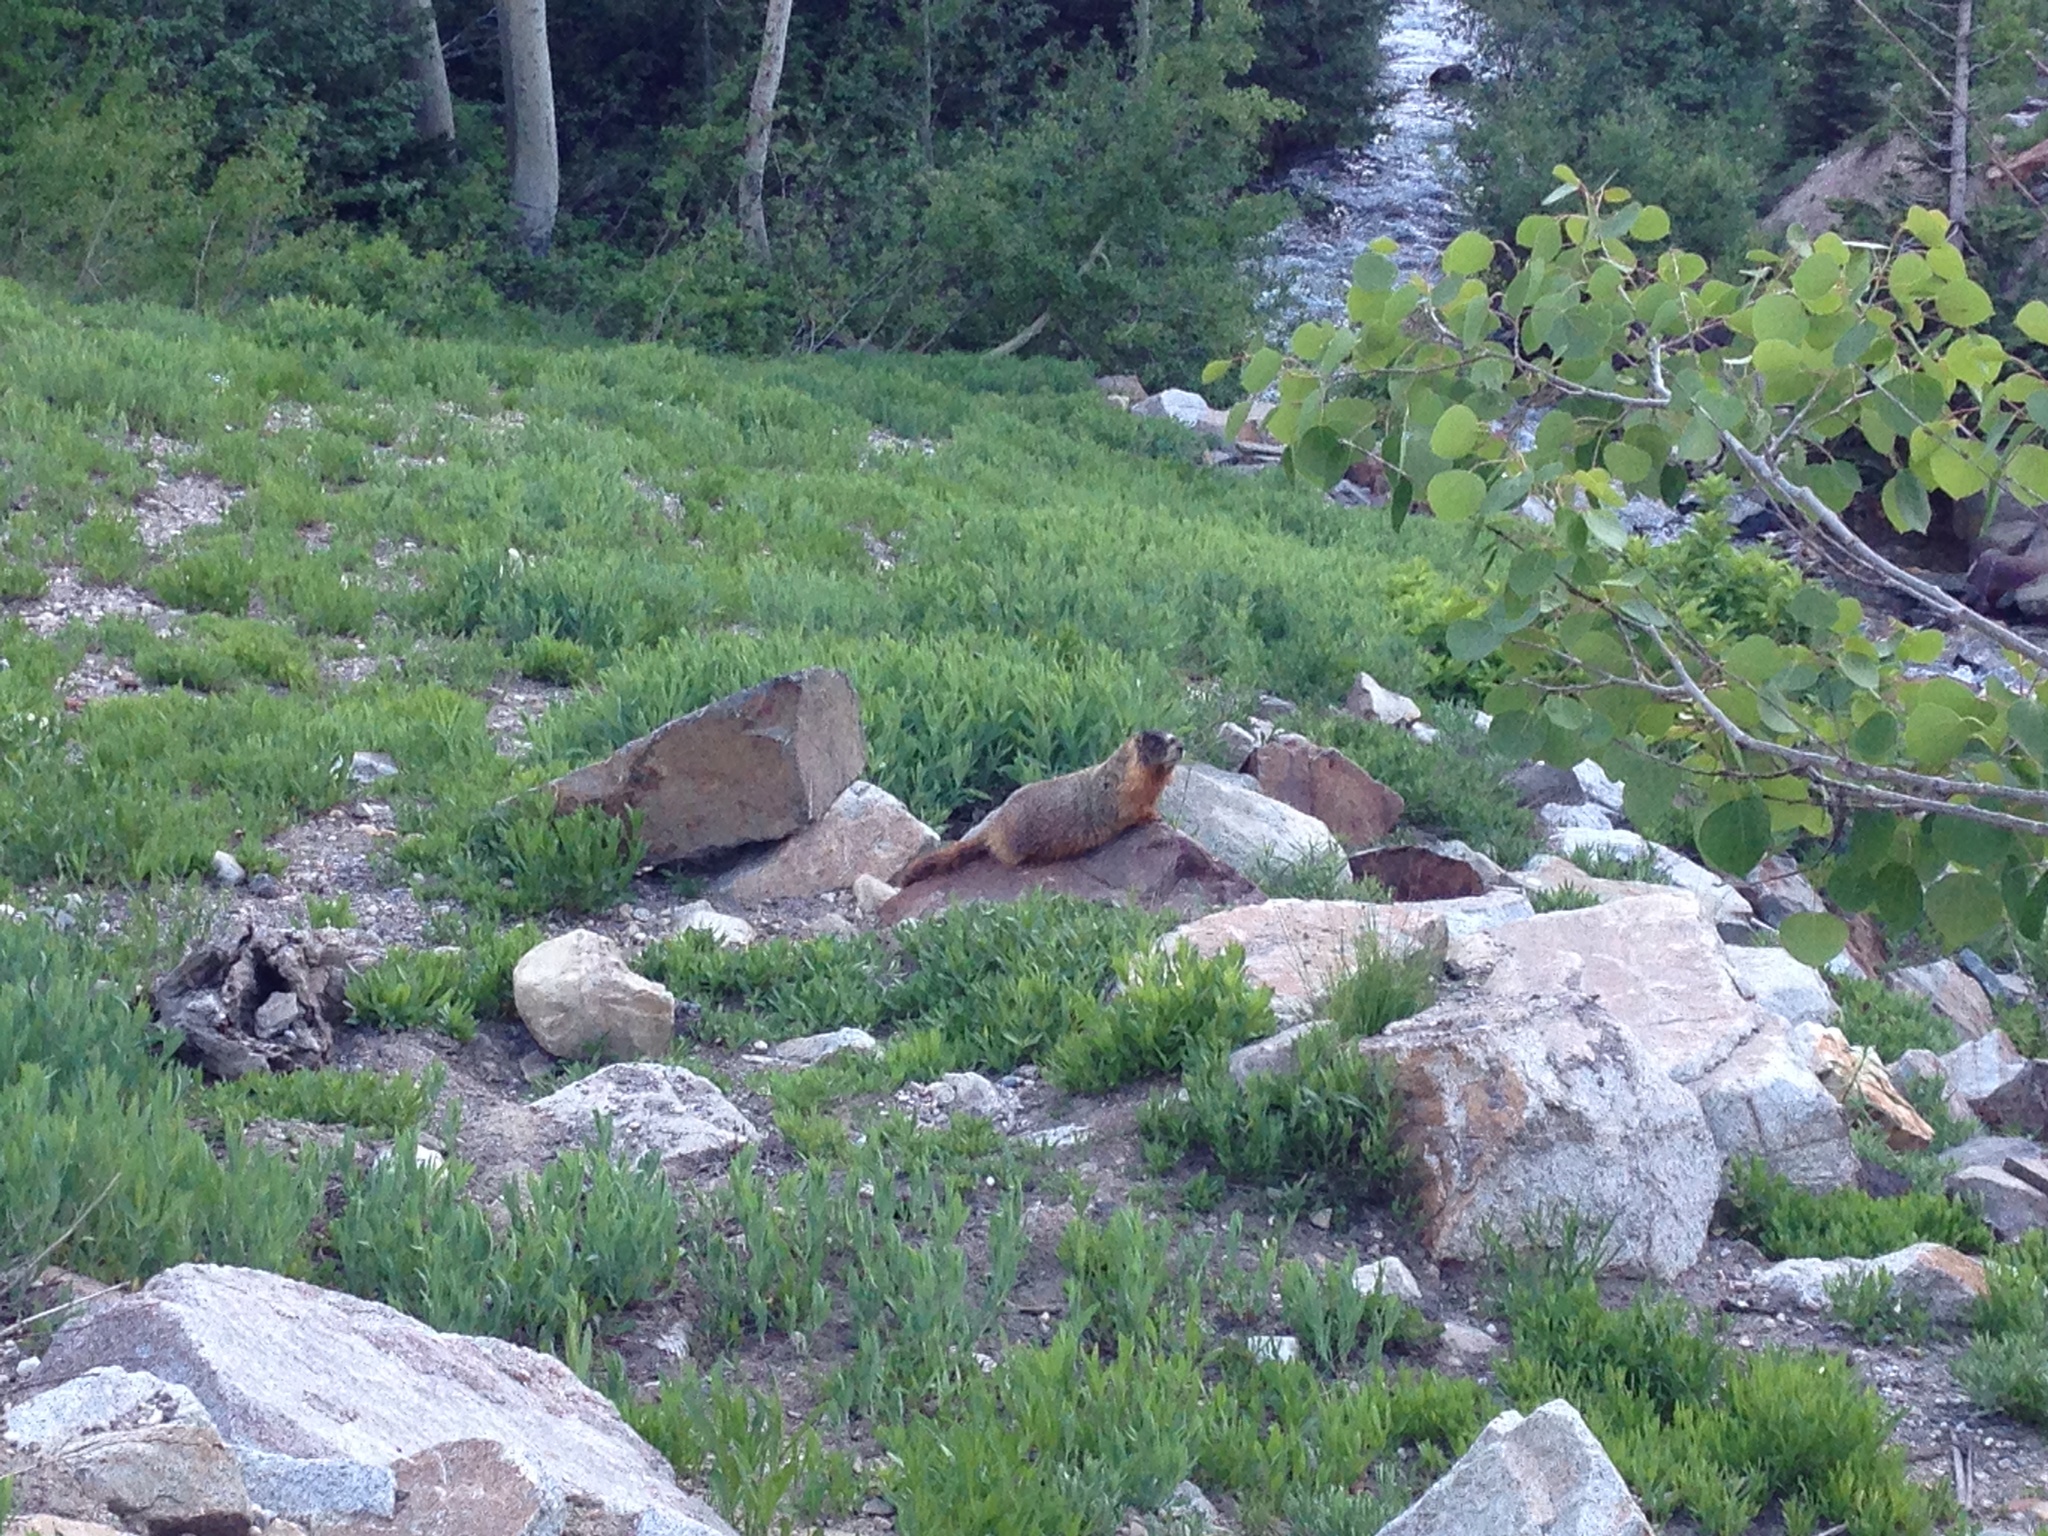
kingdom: Animalia
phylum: Chordata
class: Mammalia
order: Rodentia
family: Sciuridae
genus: Marmota
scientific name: Marmota flaviventris
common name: Yellow-bellied marmot
